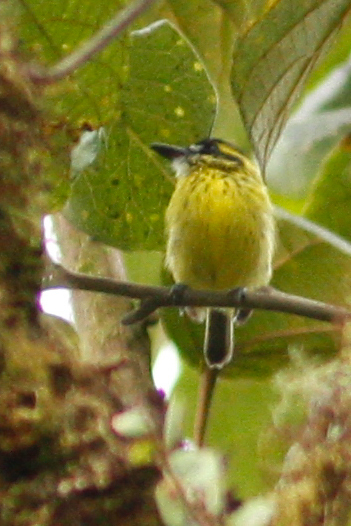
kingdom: Animalia
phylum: Chordata
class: Aves
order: Passeriformes
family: Tyrannidae
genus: Todirostrum
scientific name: Todirostrum chrysocrotaphum
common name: Yellow-browed tody-flycatcher
